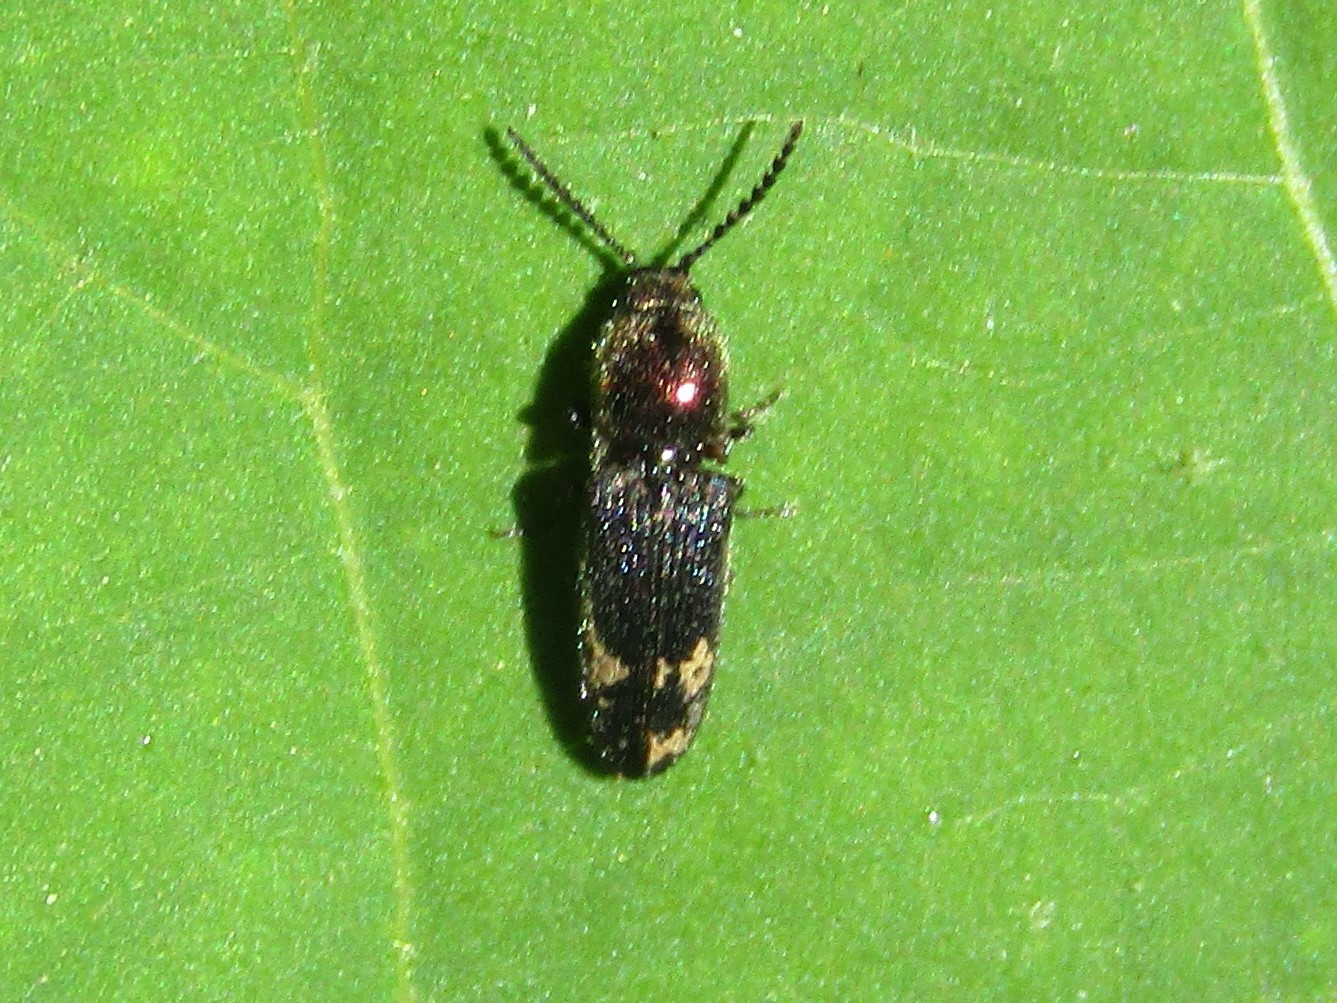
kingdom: Animalia
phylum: Arthropoda
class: Insecta
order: Coleoptera
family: Elateridae
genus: Limonius
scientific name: Limonius aurifer
